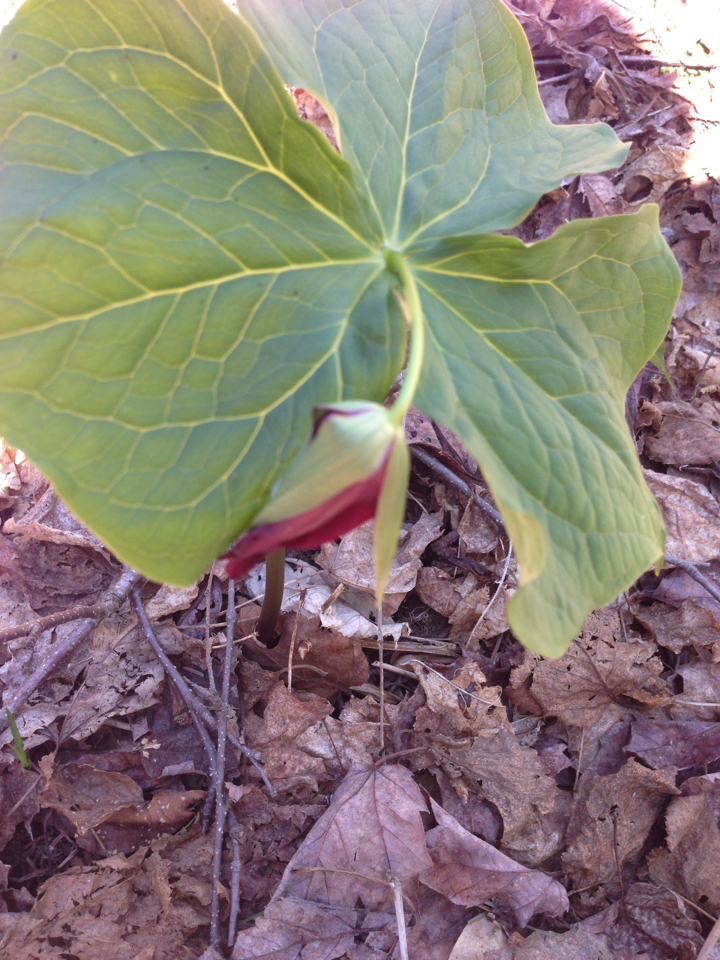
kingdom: Plantae
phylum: Tracheophyta
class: Liliopsida
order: Liliales
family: Melanthiaceae
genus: Trillium
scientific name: Trillium erectum
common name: Purple trillium
